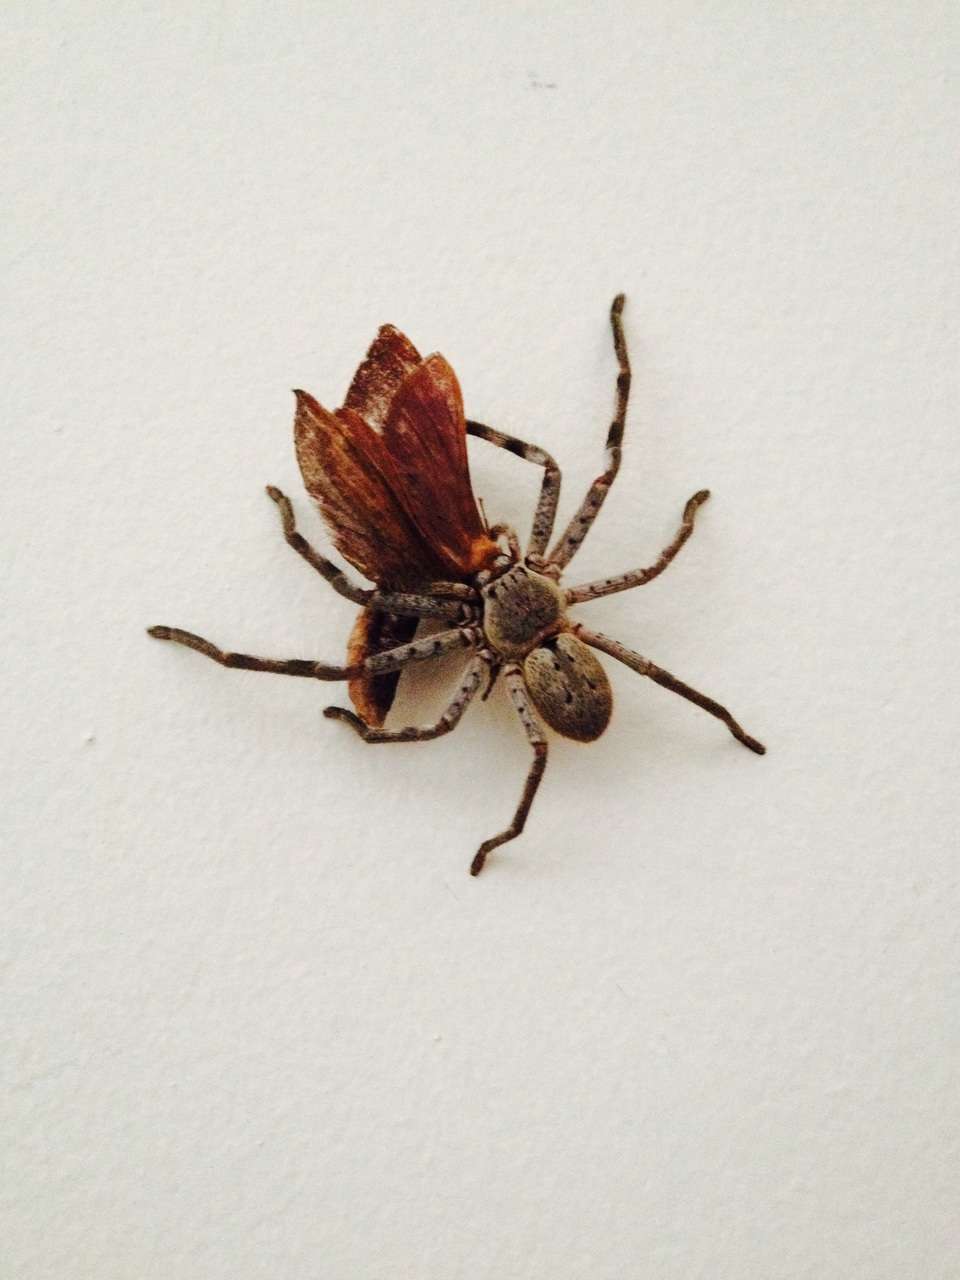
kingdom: Animalia
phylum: Arthropoda
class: Arachnida
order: Araneae
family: Sparassidae
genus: Isopeda
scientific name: Isopeda montana
